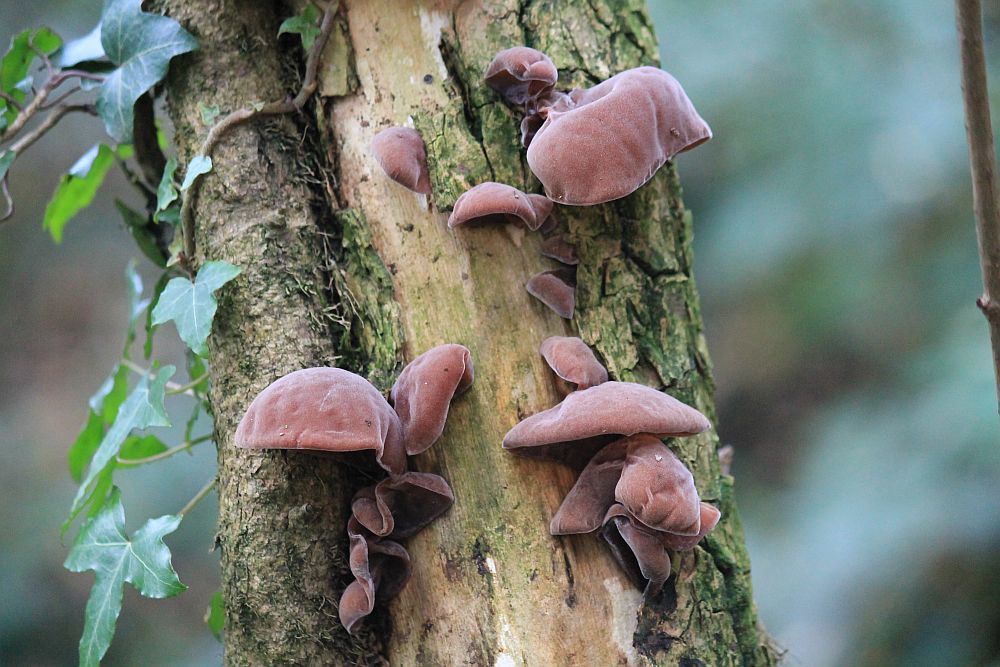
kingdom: Fungi
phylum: Basidiomycota
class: Agaricomycetes
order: Auriculariales
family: Auriculariaceae
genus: Auricularia
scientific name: Auricularia auricula-judae
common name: Jelly ear
